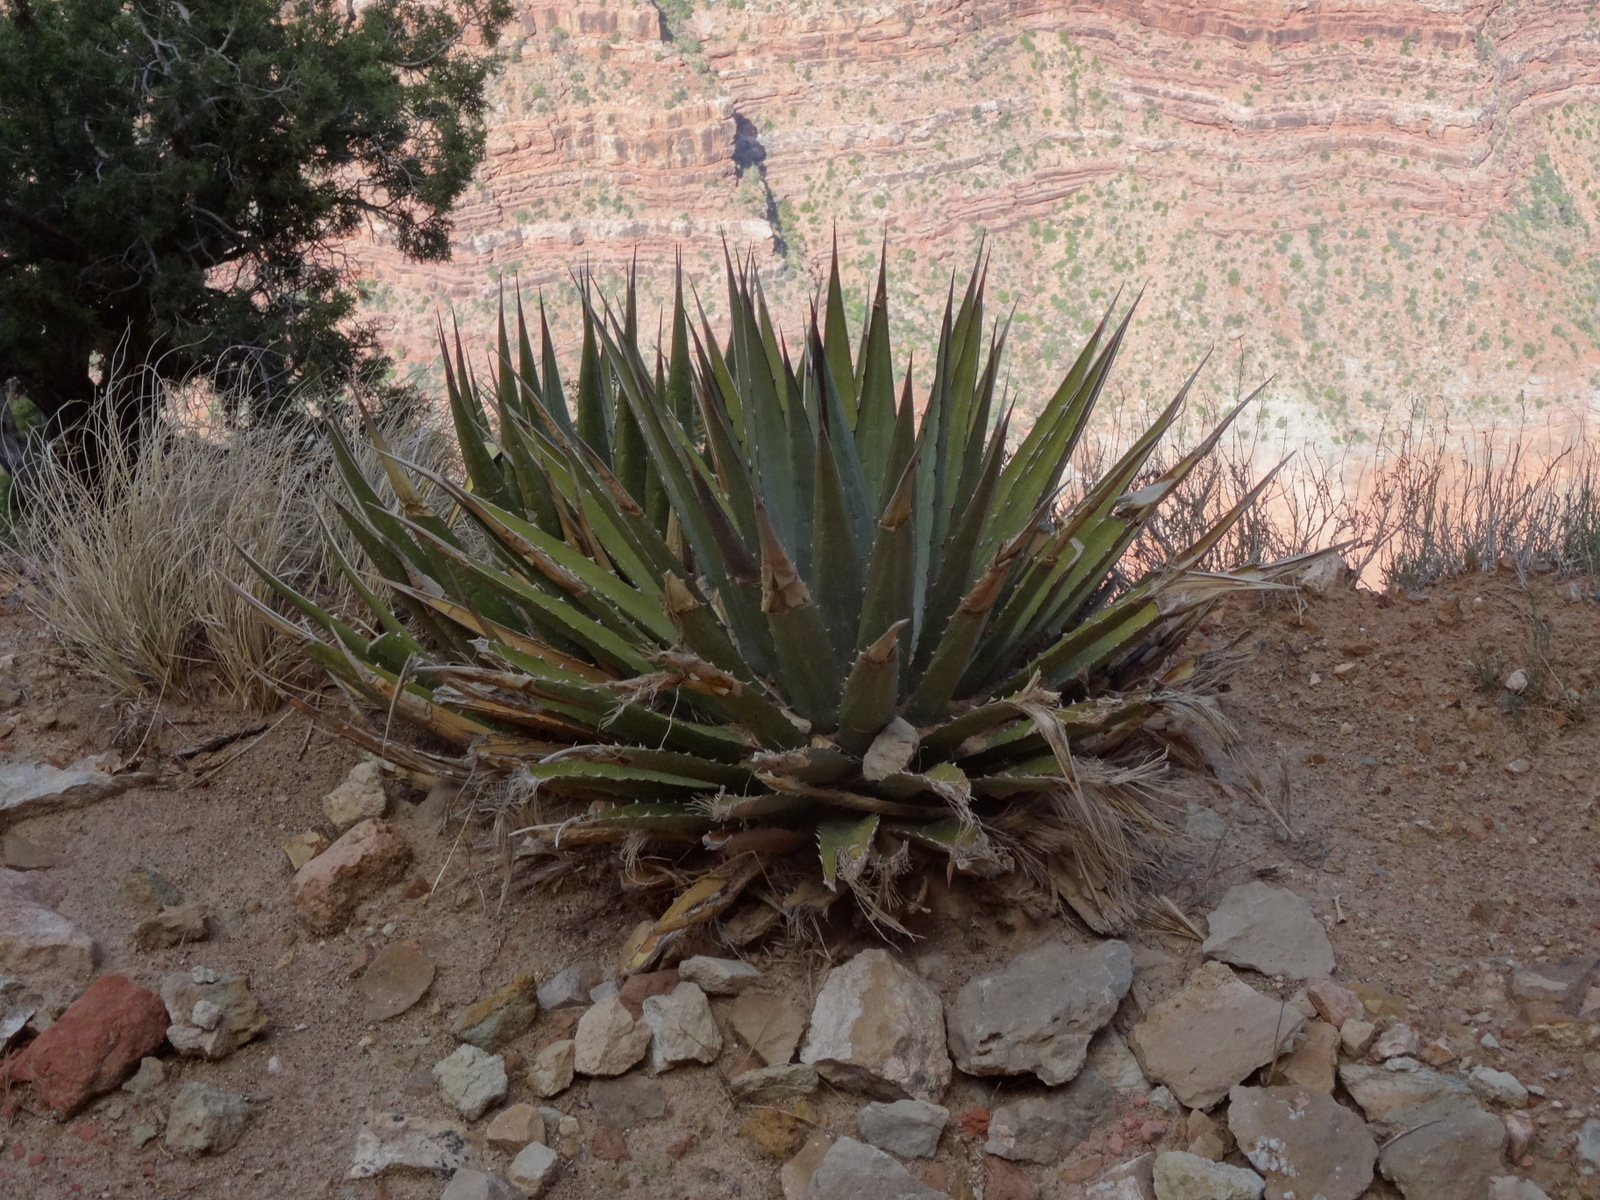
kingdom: Plantae
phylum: Tracheophyta
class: Liliopsida
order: Asparagales
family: Asparagaceae
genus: Agave
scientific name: Agave utahensis
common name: Utah agave
